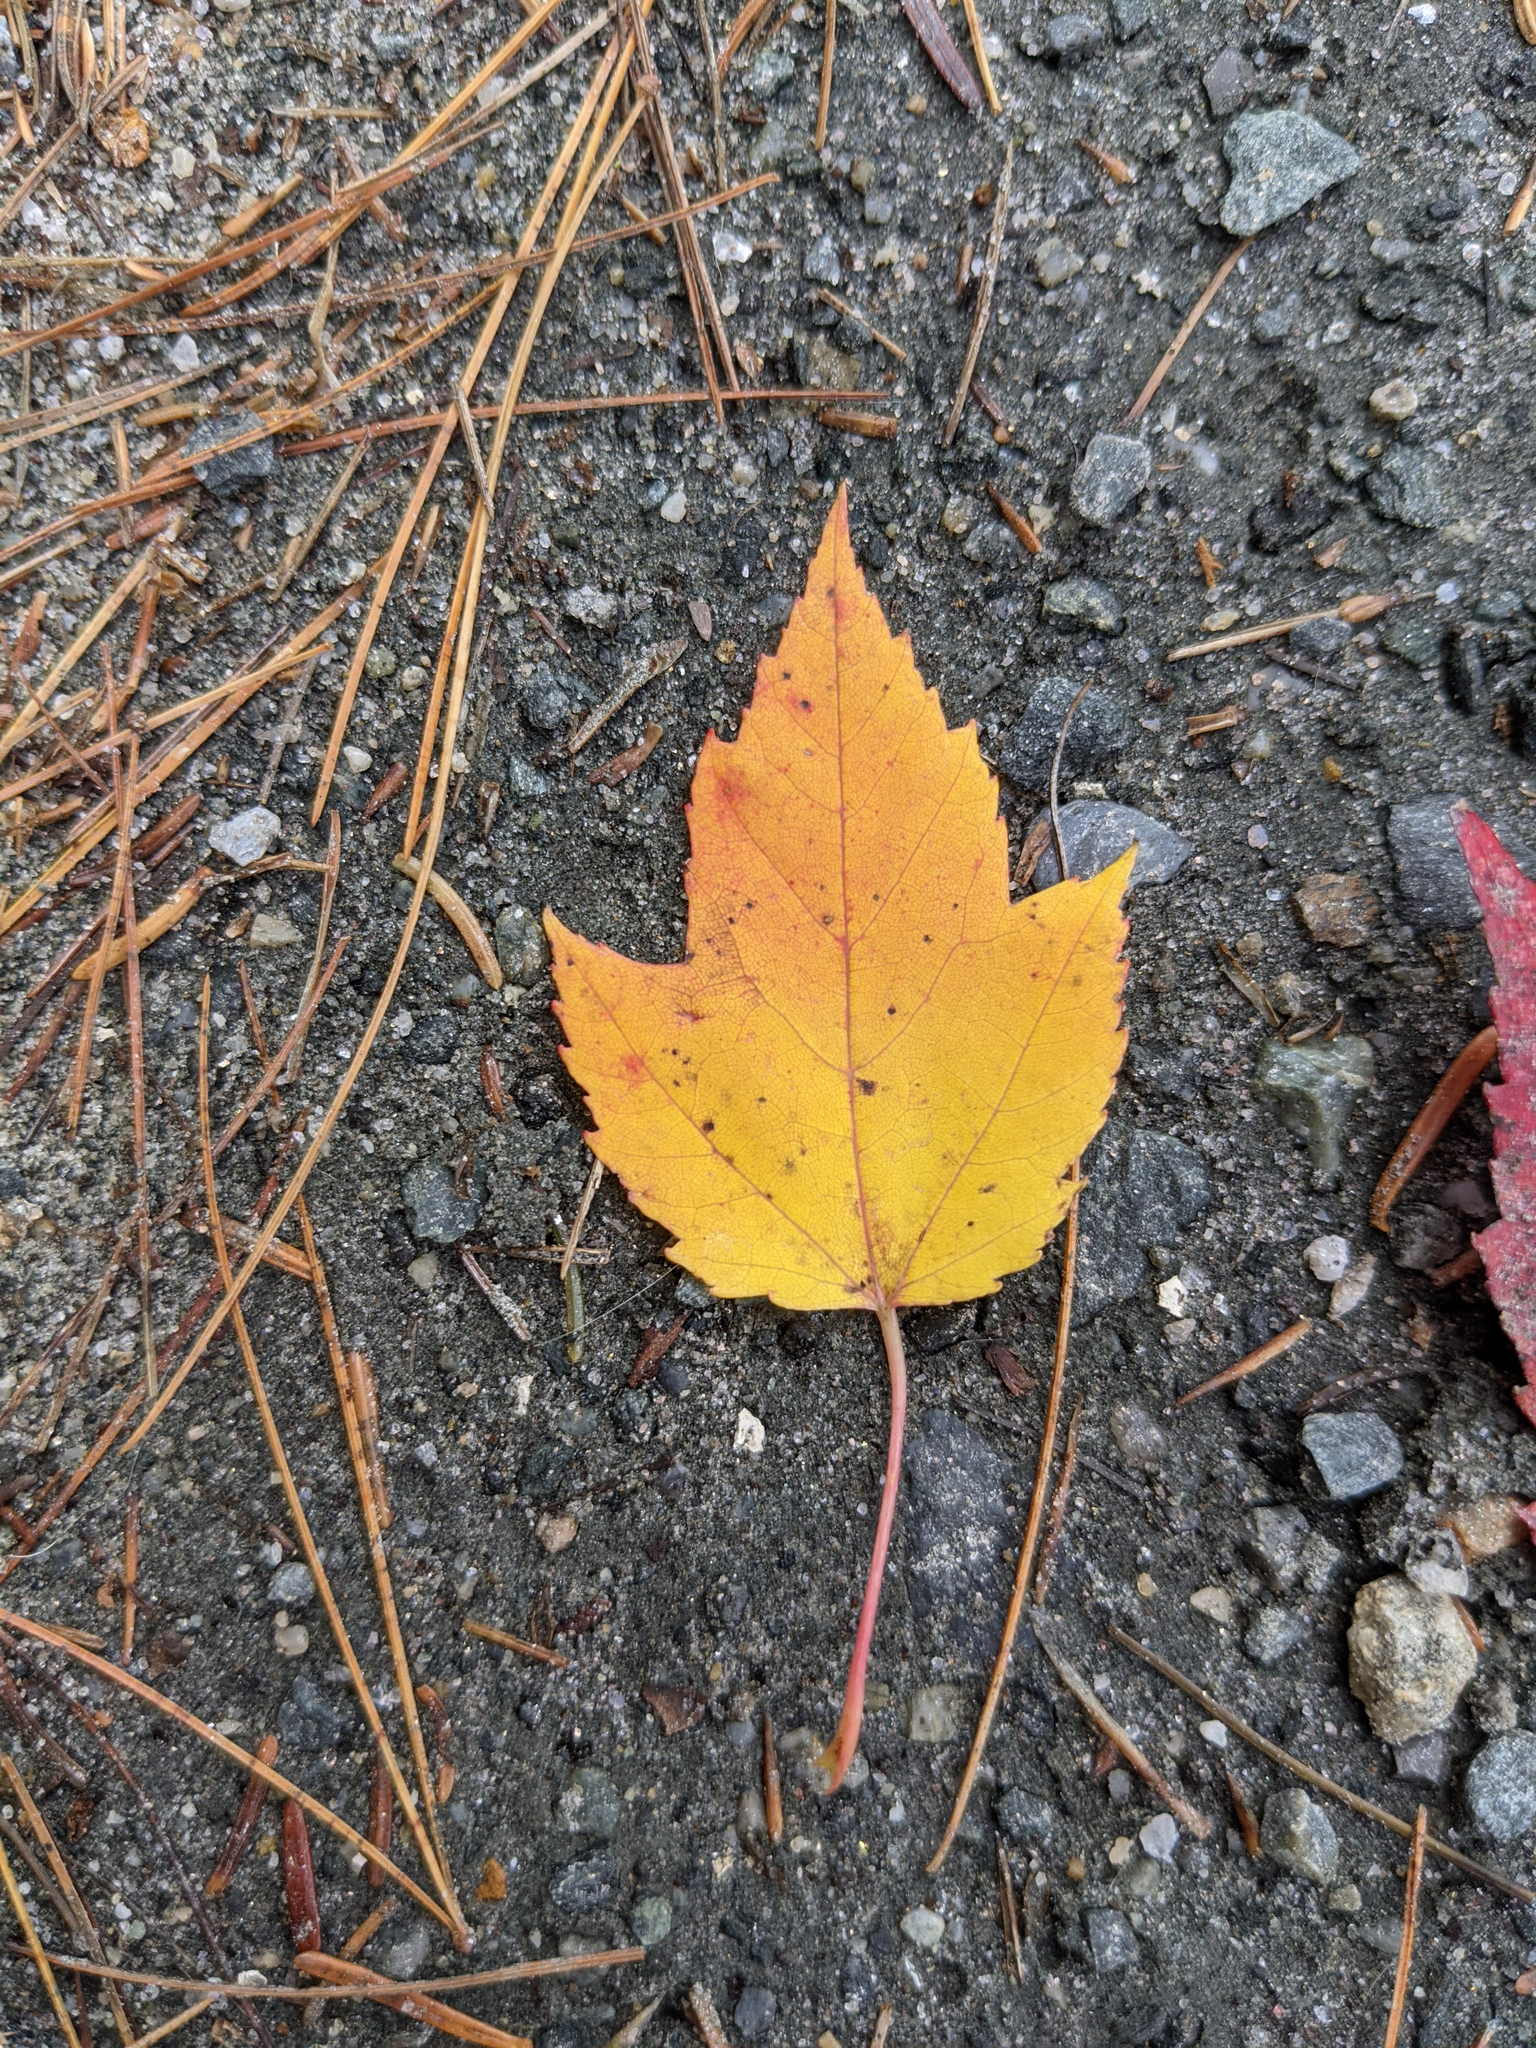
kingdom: Plantae
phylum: Tracheophyta
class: Magnoliopsida
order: Sapindales
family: Sapindaceae
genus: Acer
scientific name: Acer rubrum
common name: Red maple
